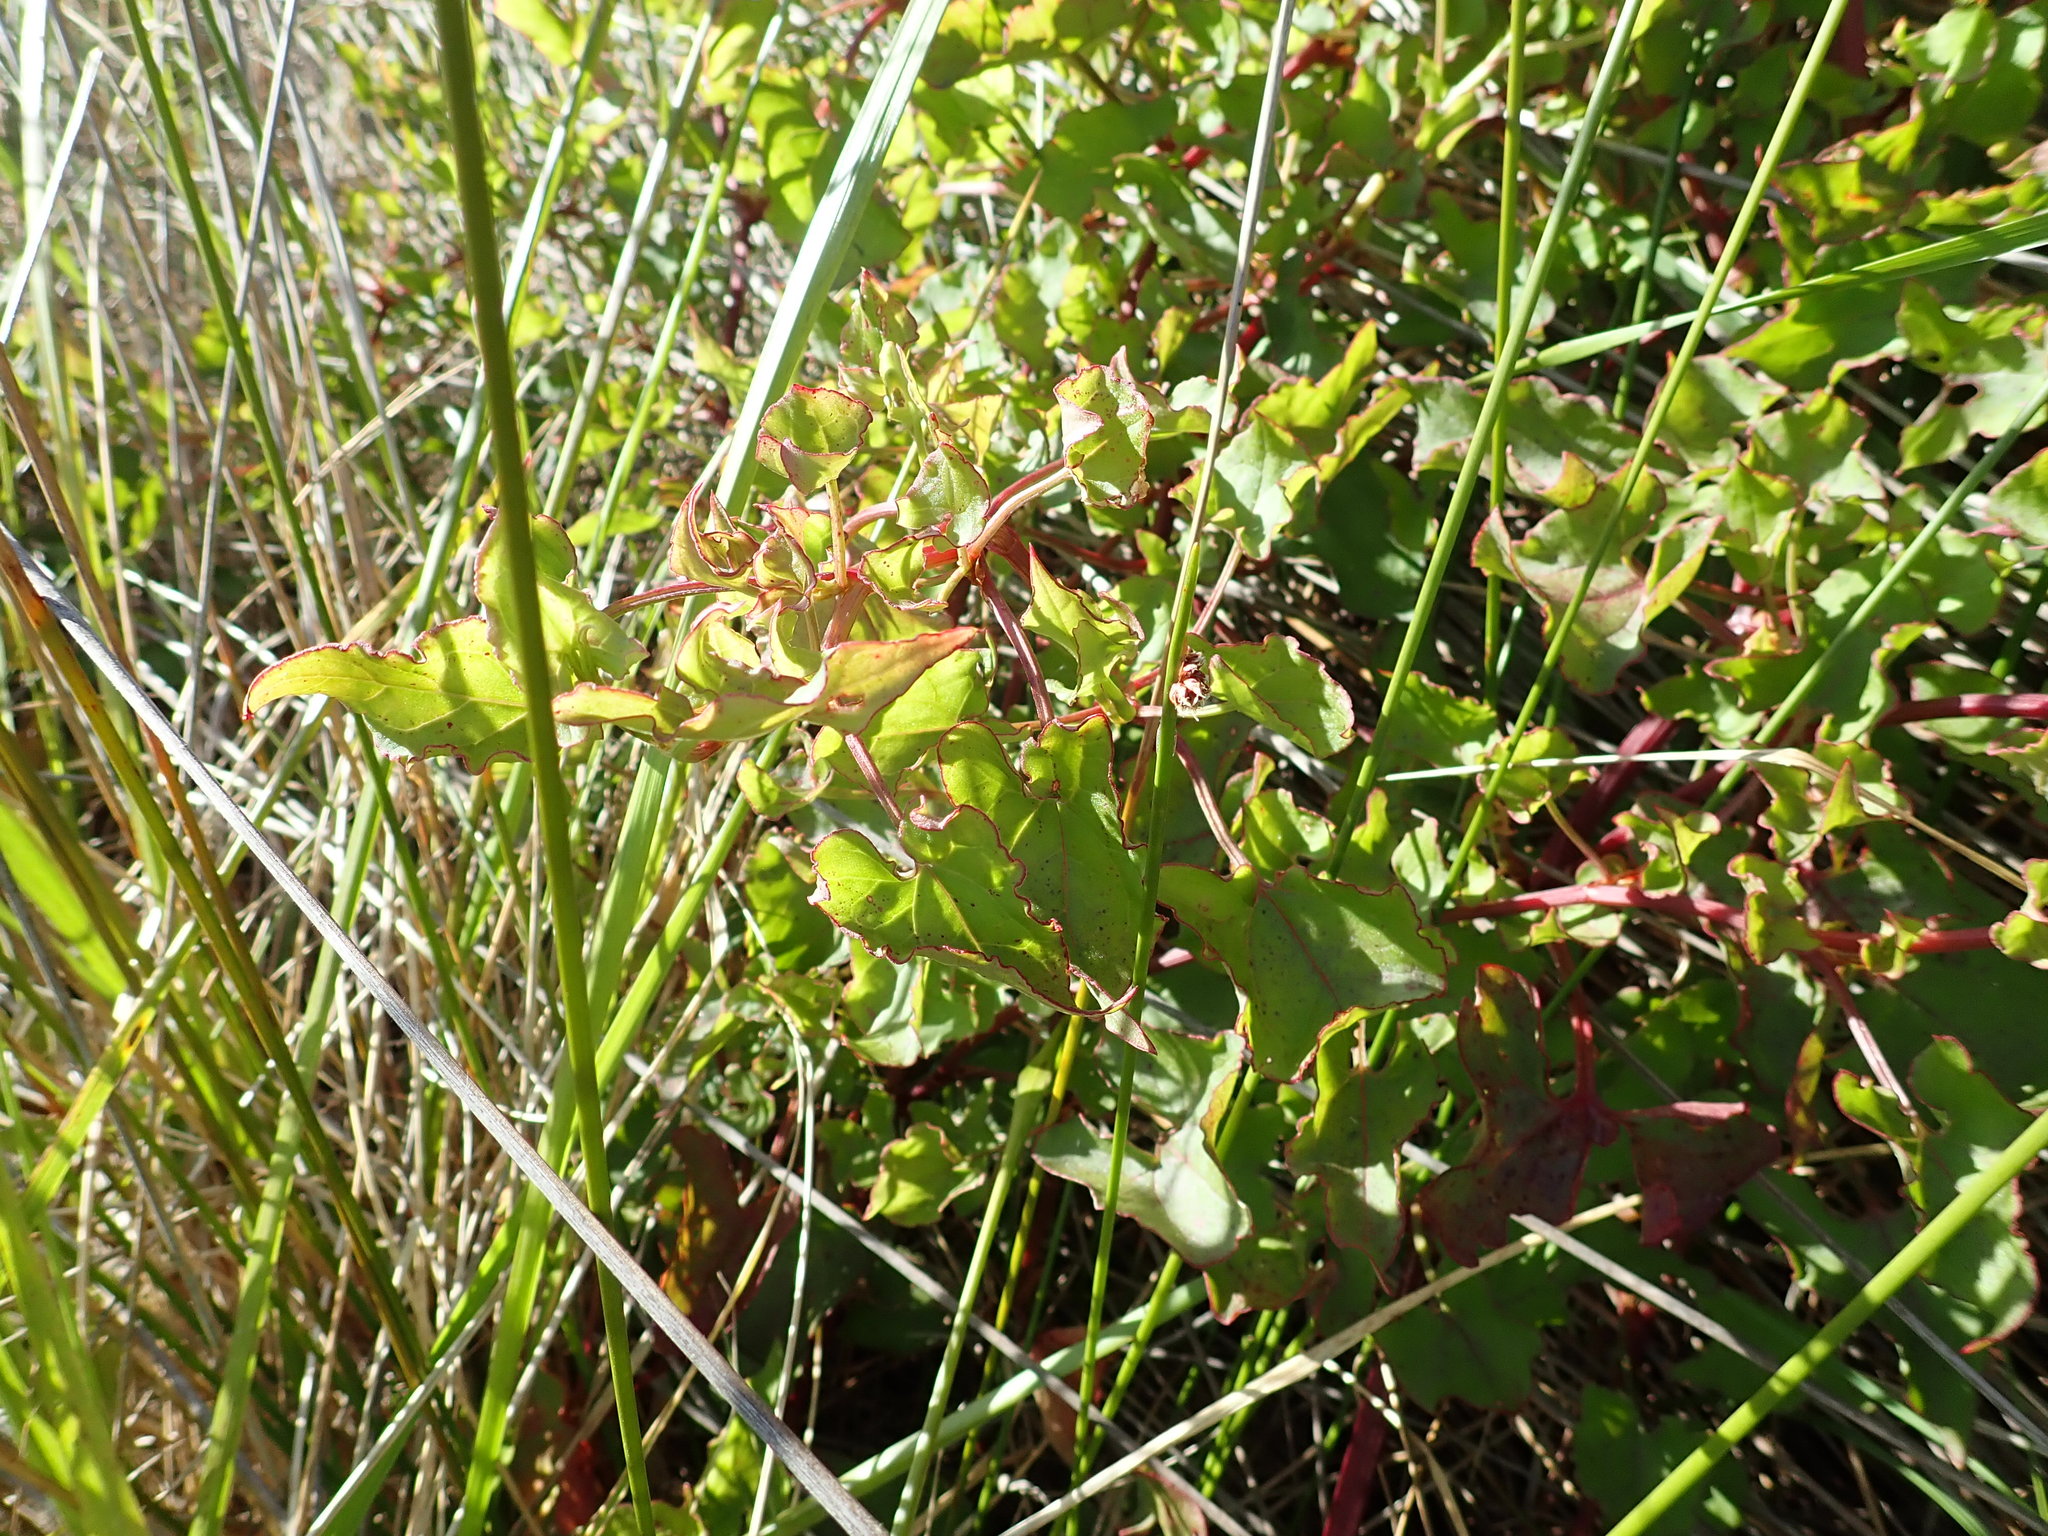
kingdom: Plantae
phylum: Tracheophyta
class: Magnoliopsida
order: Caryophyllales
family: Polygonaceae
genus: Rumex
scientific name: Rumex sagittatus
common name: Climbing dock
